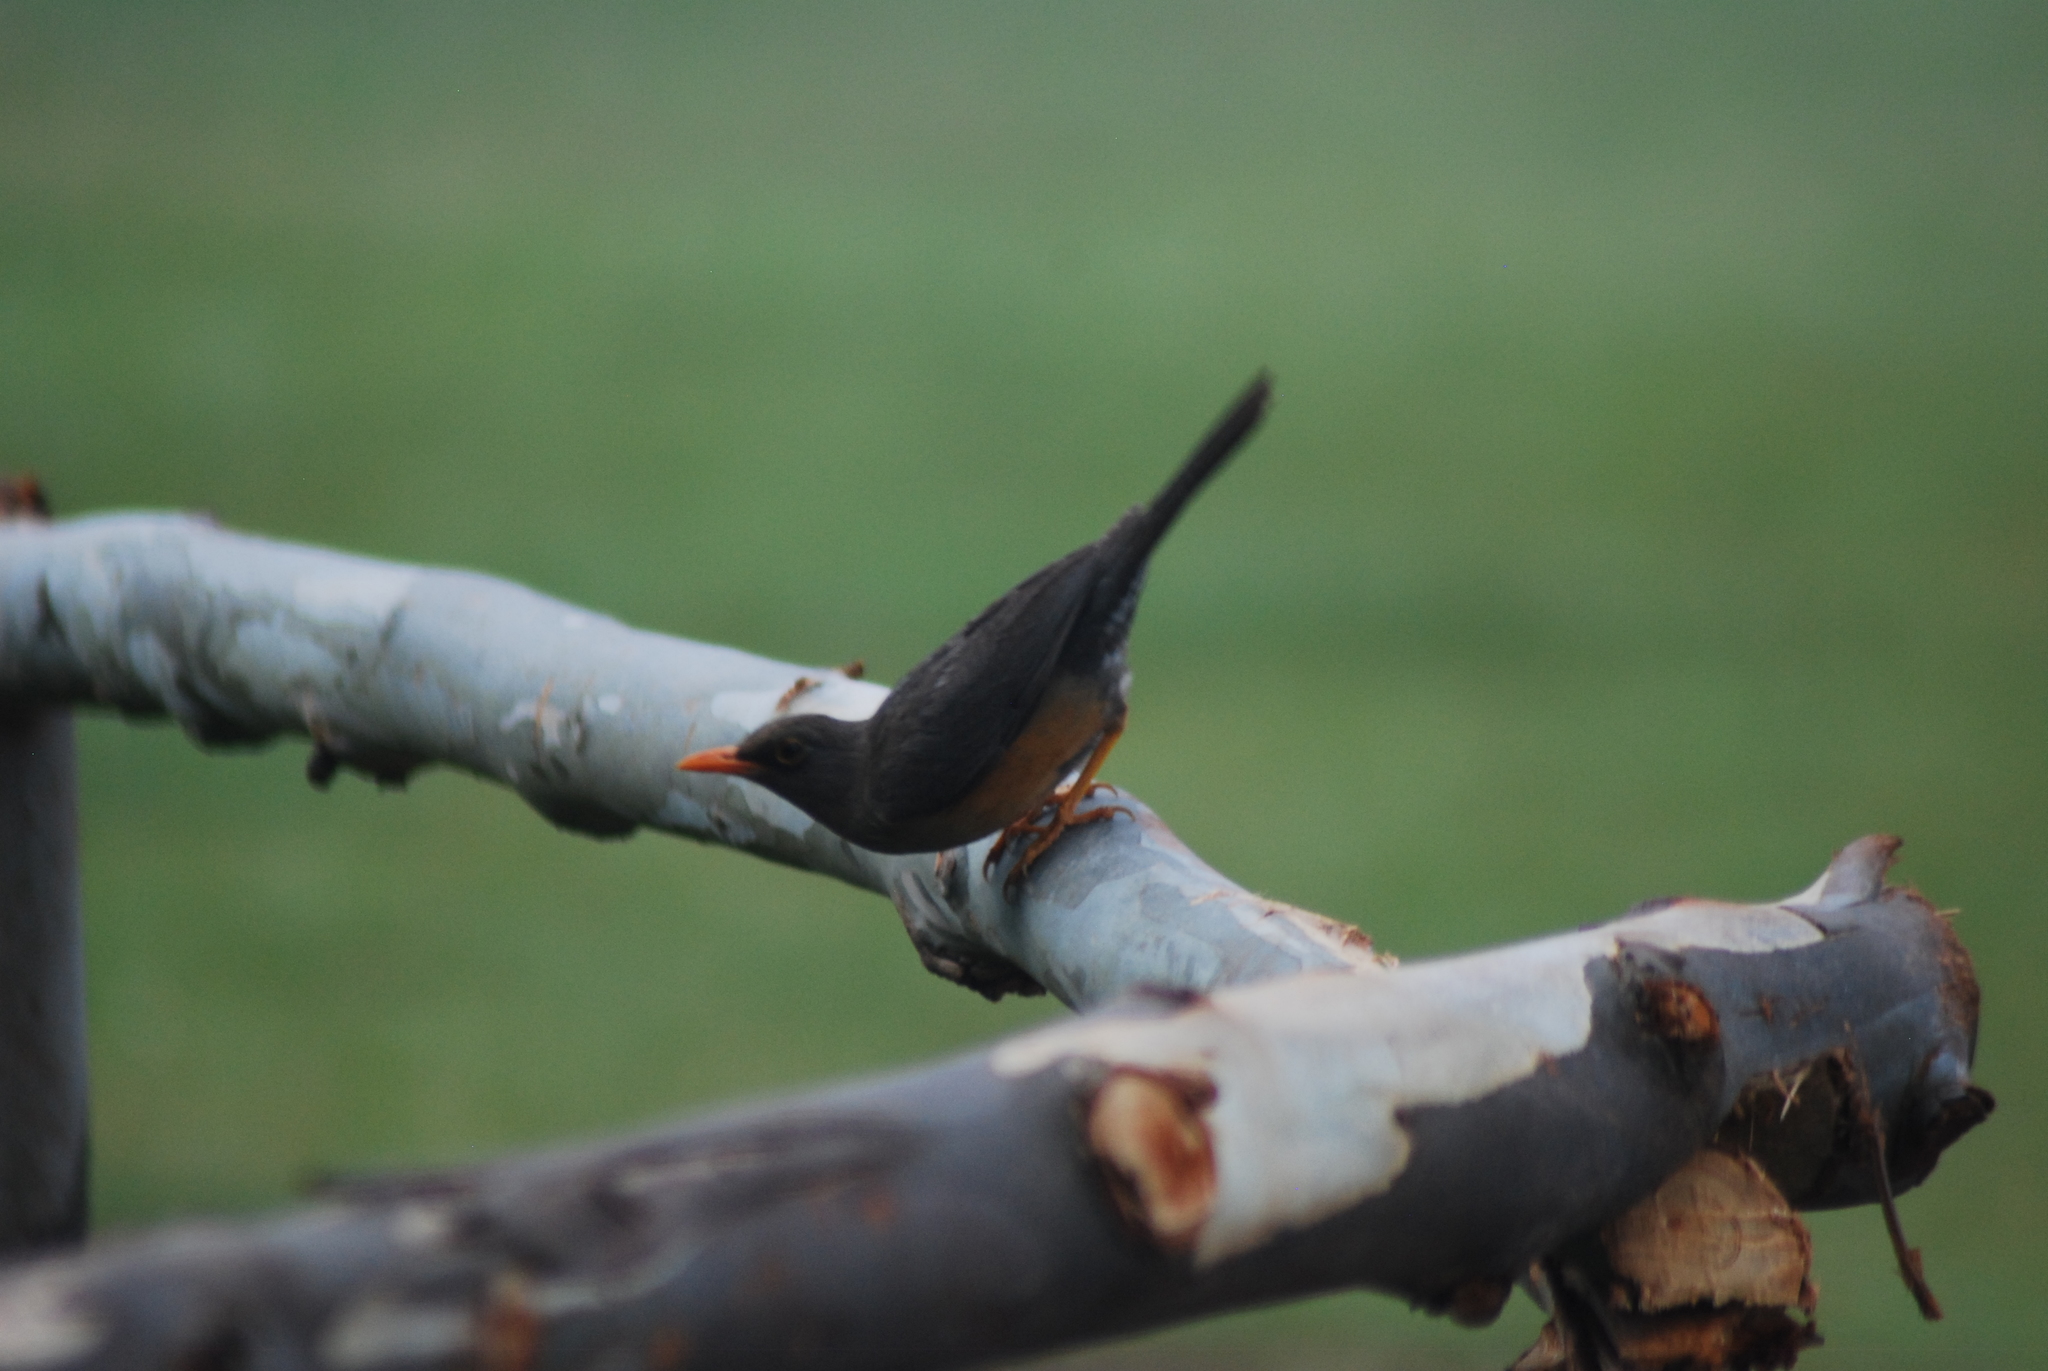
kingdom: Animalia
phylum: Chordata
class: Aves
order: Passeriformes
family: Turdidae
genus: Turdus
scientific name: Turdus abyssinicus
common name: Abyssinian thrush
